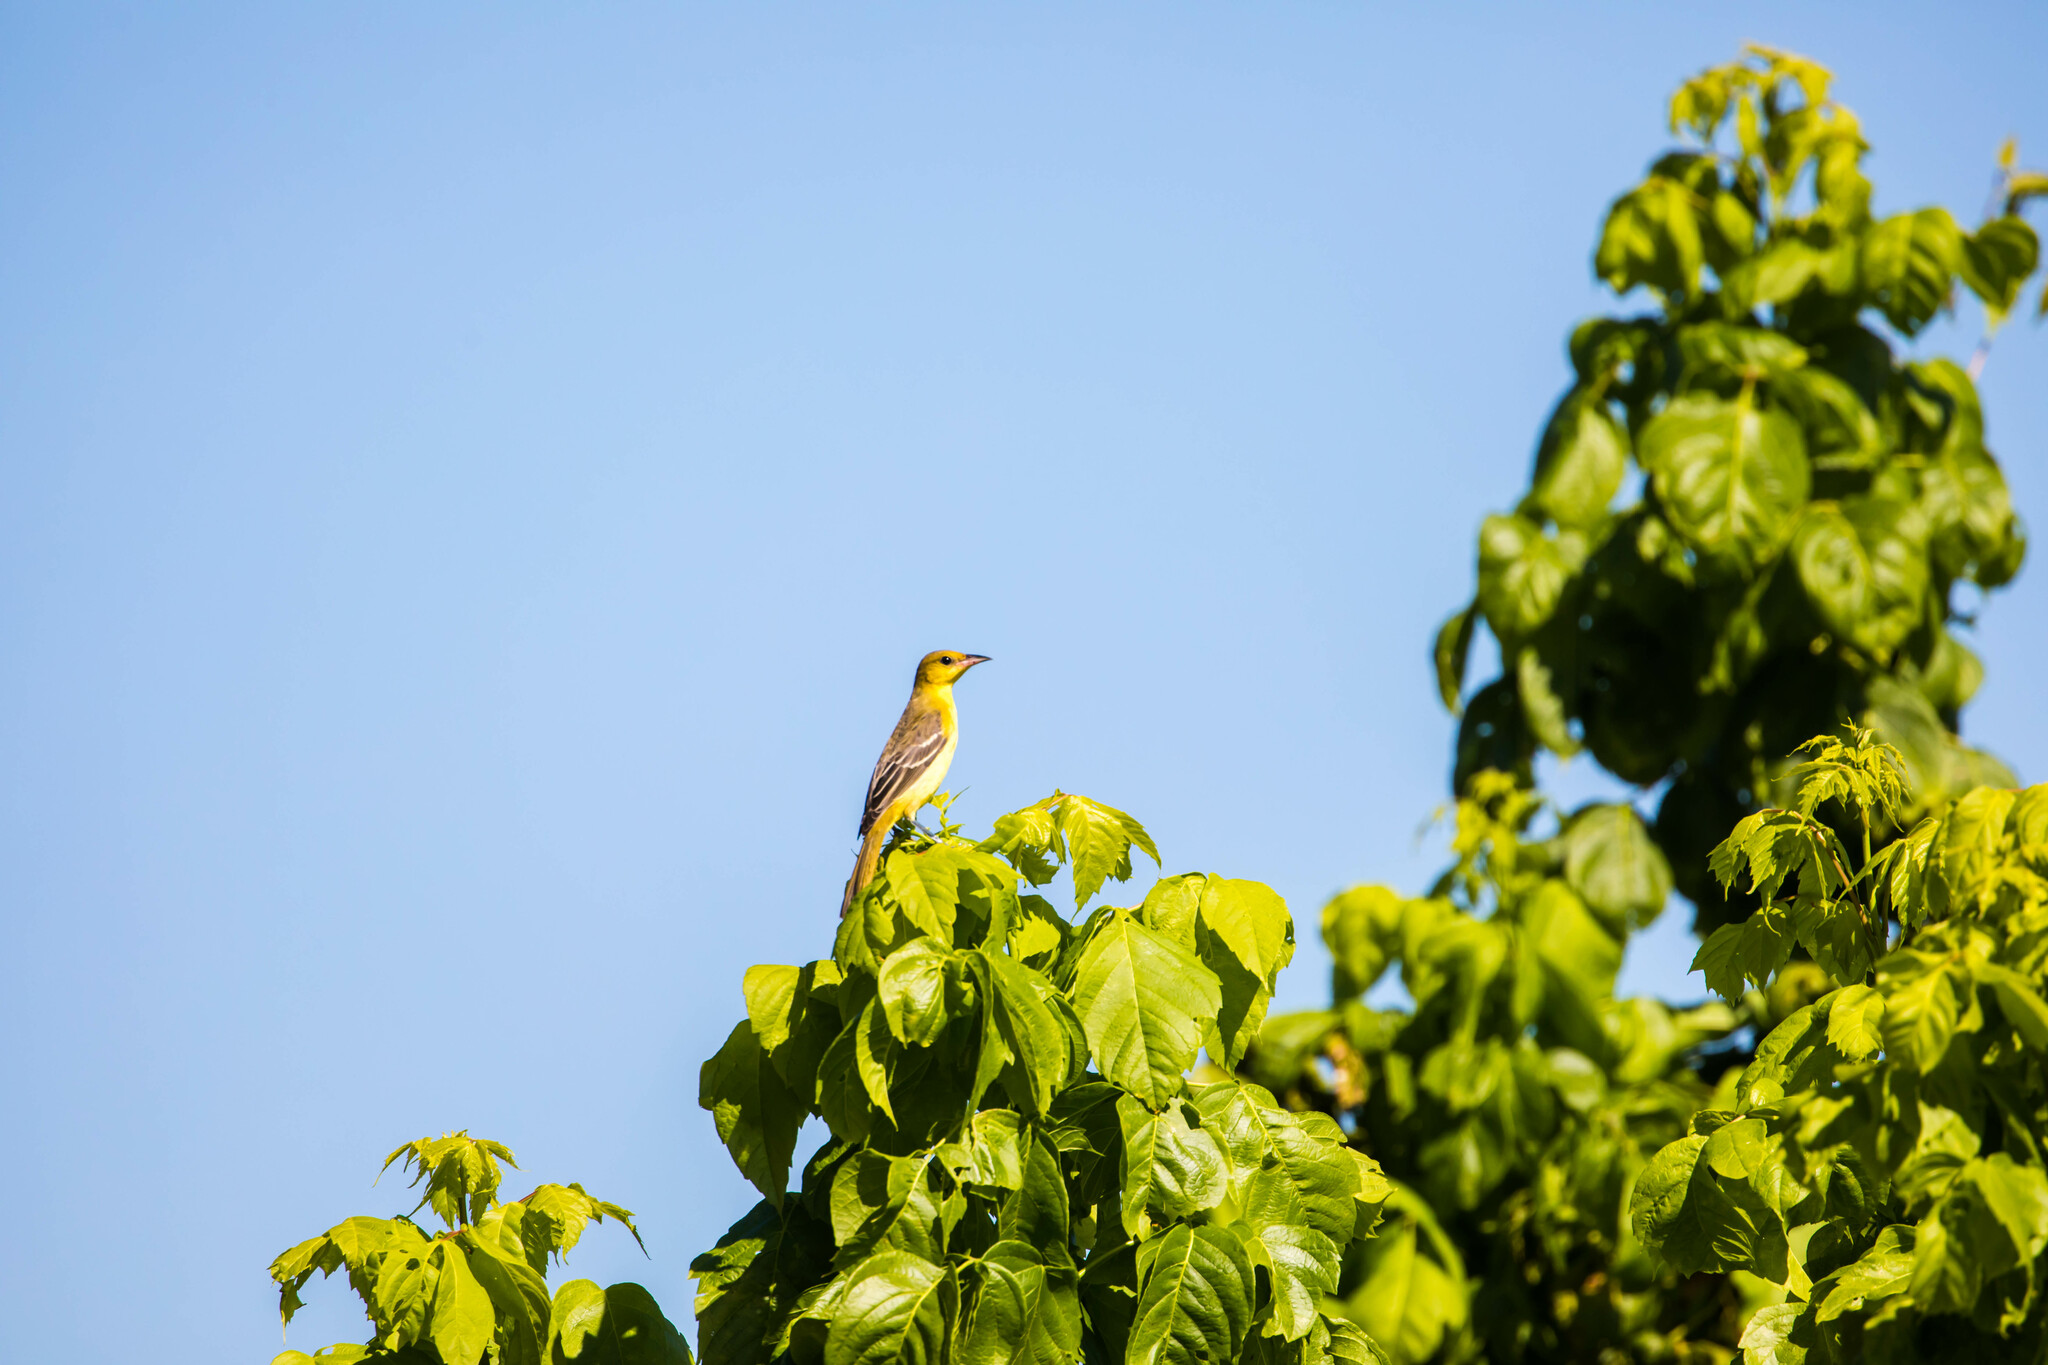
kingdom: Animalia
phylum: Chordata
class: Aves
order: Passeriformes
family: Icteridae
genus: Icterus
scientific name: Icterus spurius
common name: Orchard oriole
